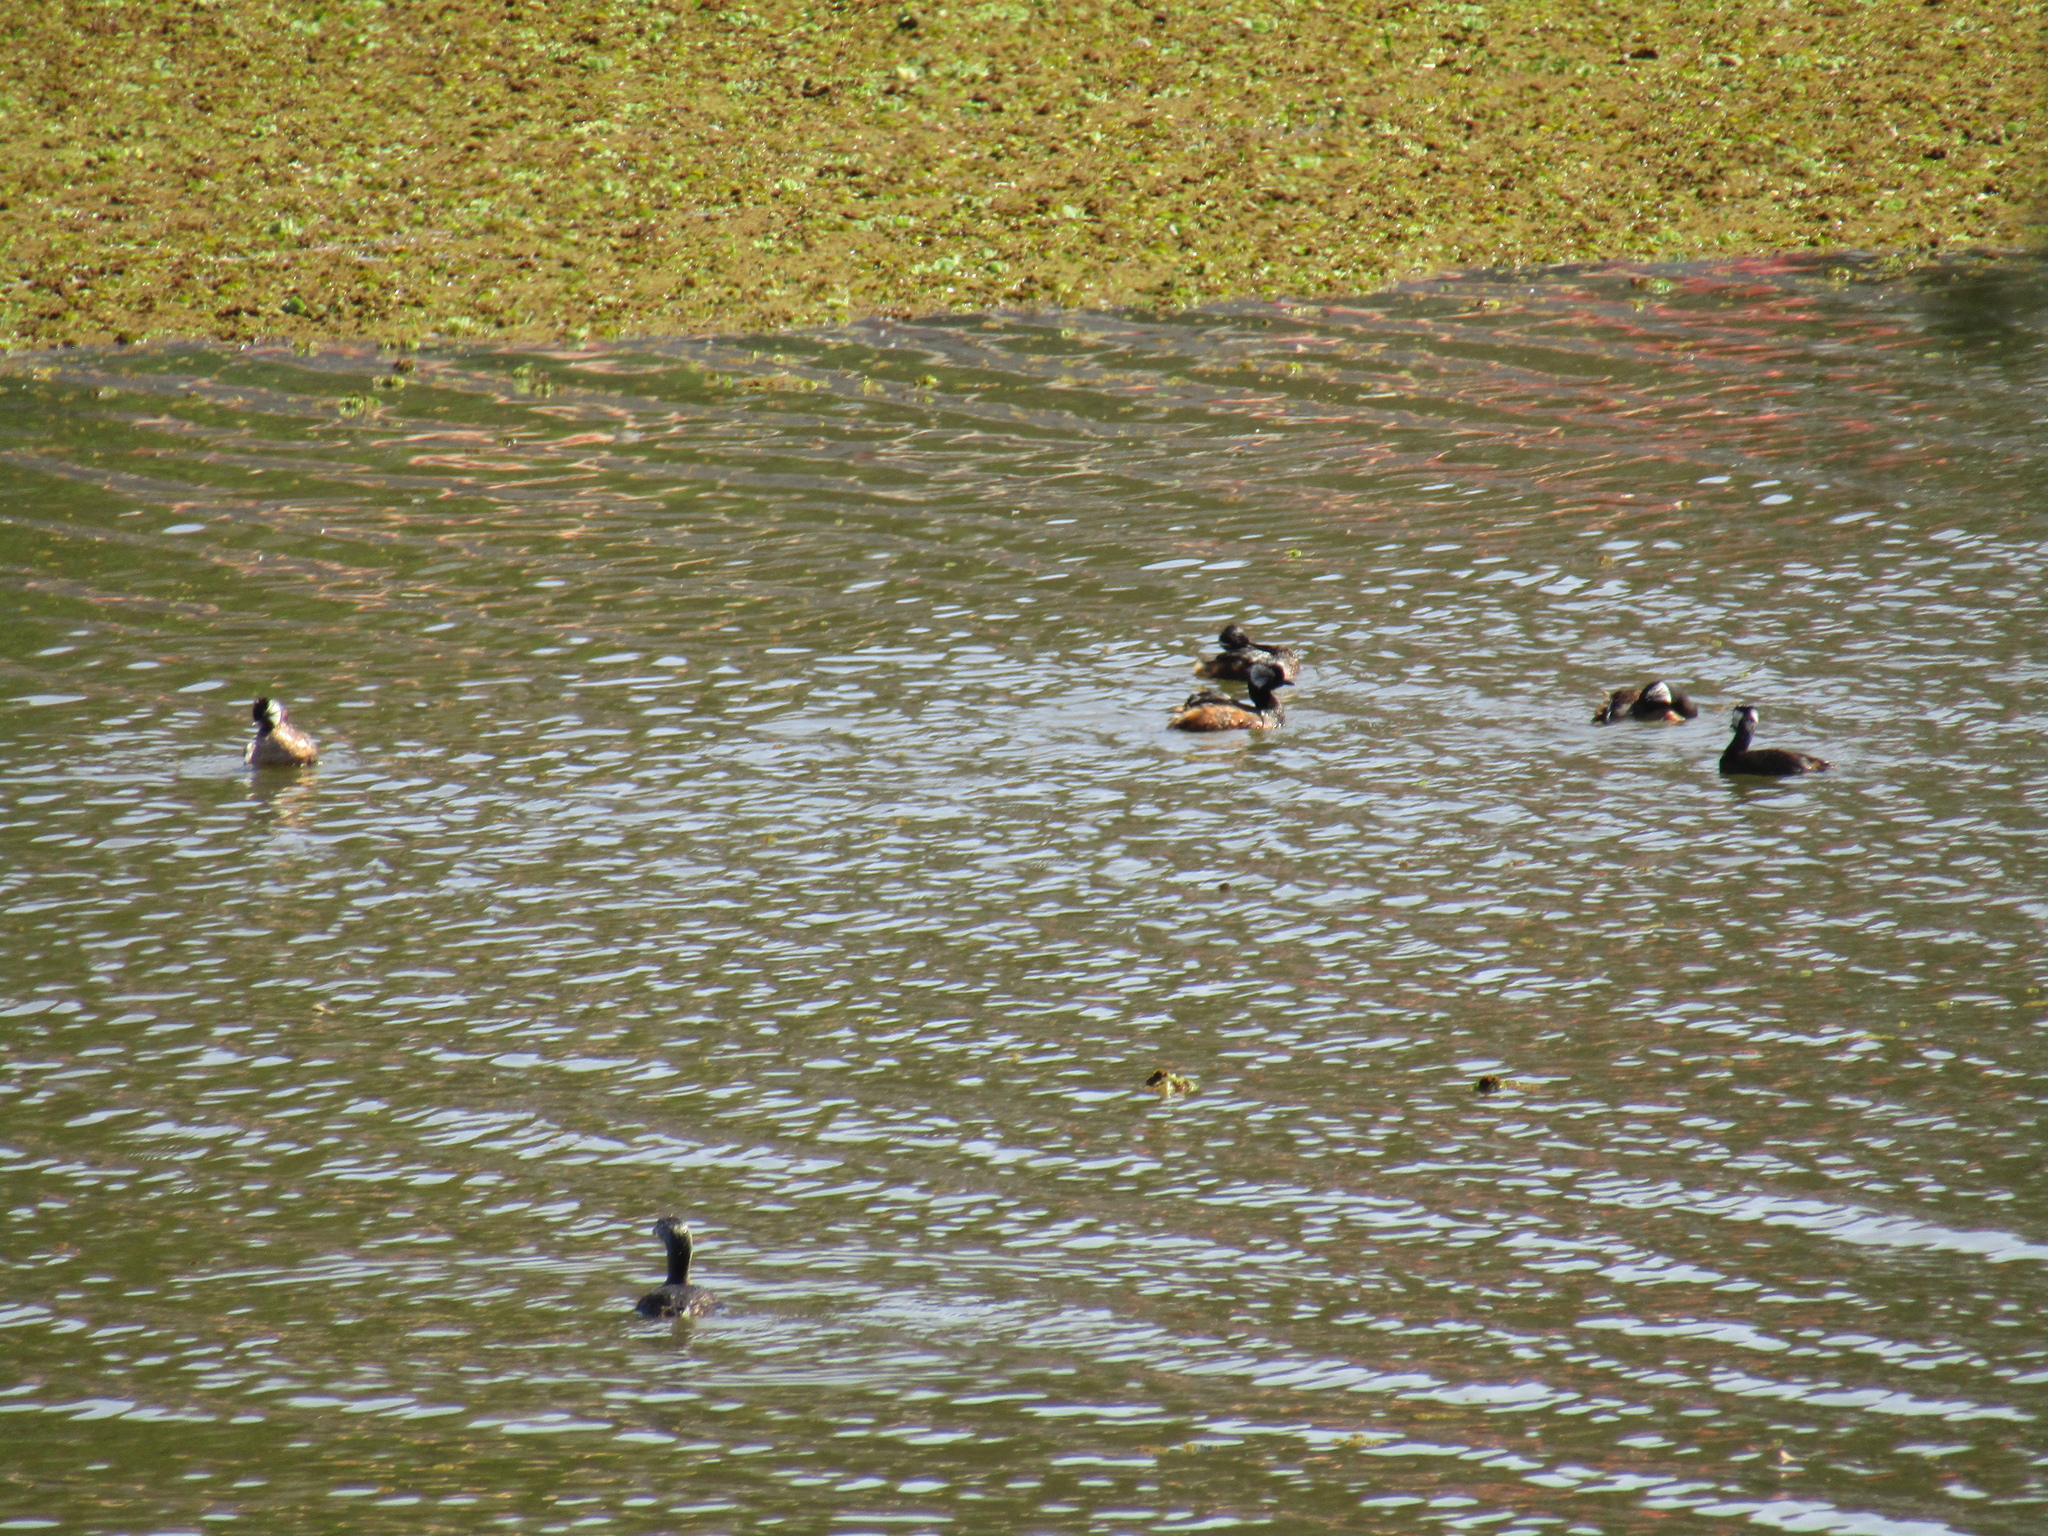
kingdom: Animalia
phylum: Chordata
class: Aves
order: Podicipediformes
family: Podicipedidae
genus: Rollandia
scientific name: Rollandia rolland
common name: White-tufted grebe
